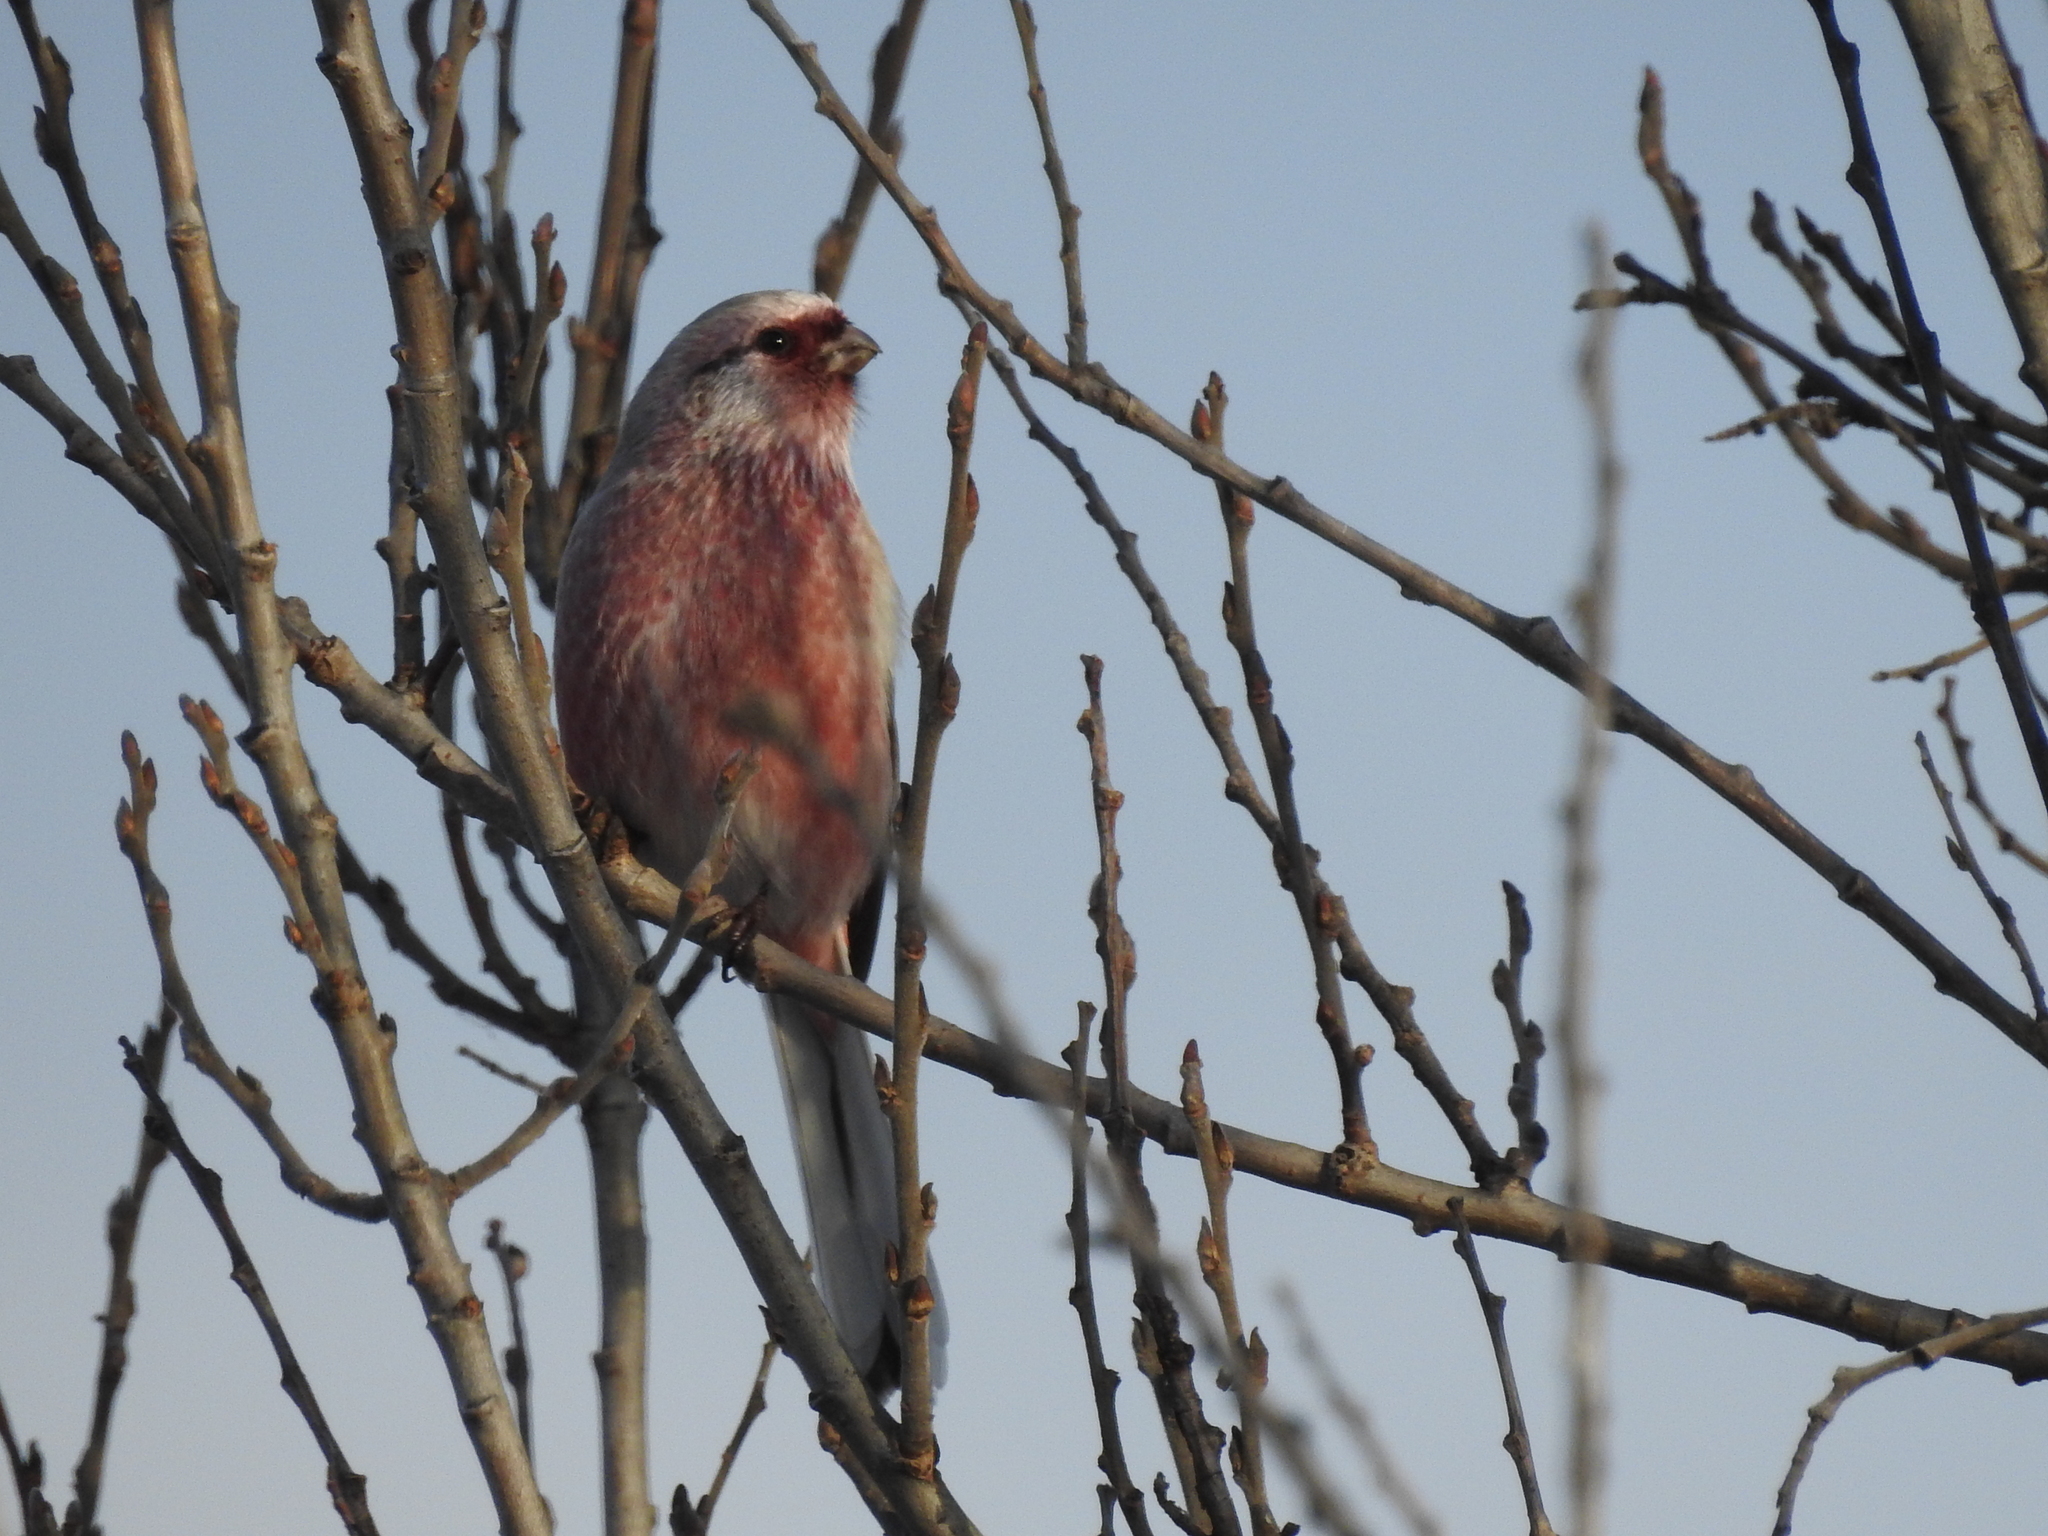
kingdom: Animalia
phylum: Chordata
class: Aves
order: Passeriformes
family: Fringillidae
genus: Carpodacus
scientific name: Carpodacus sibiricus
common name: Long-tailed rosefinch
